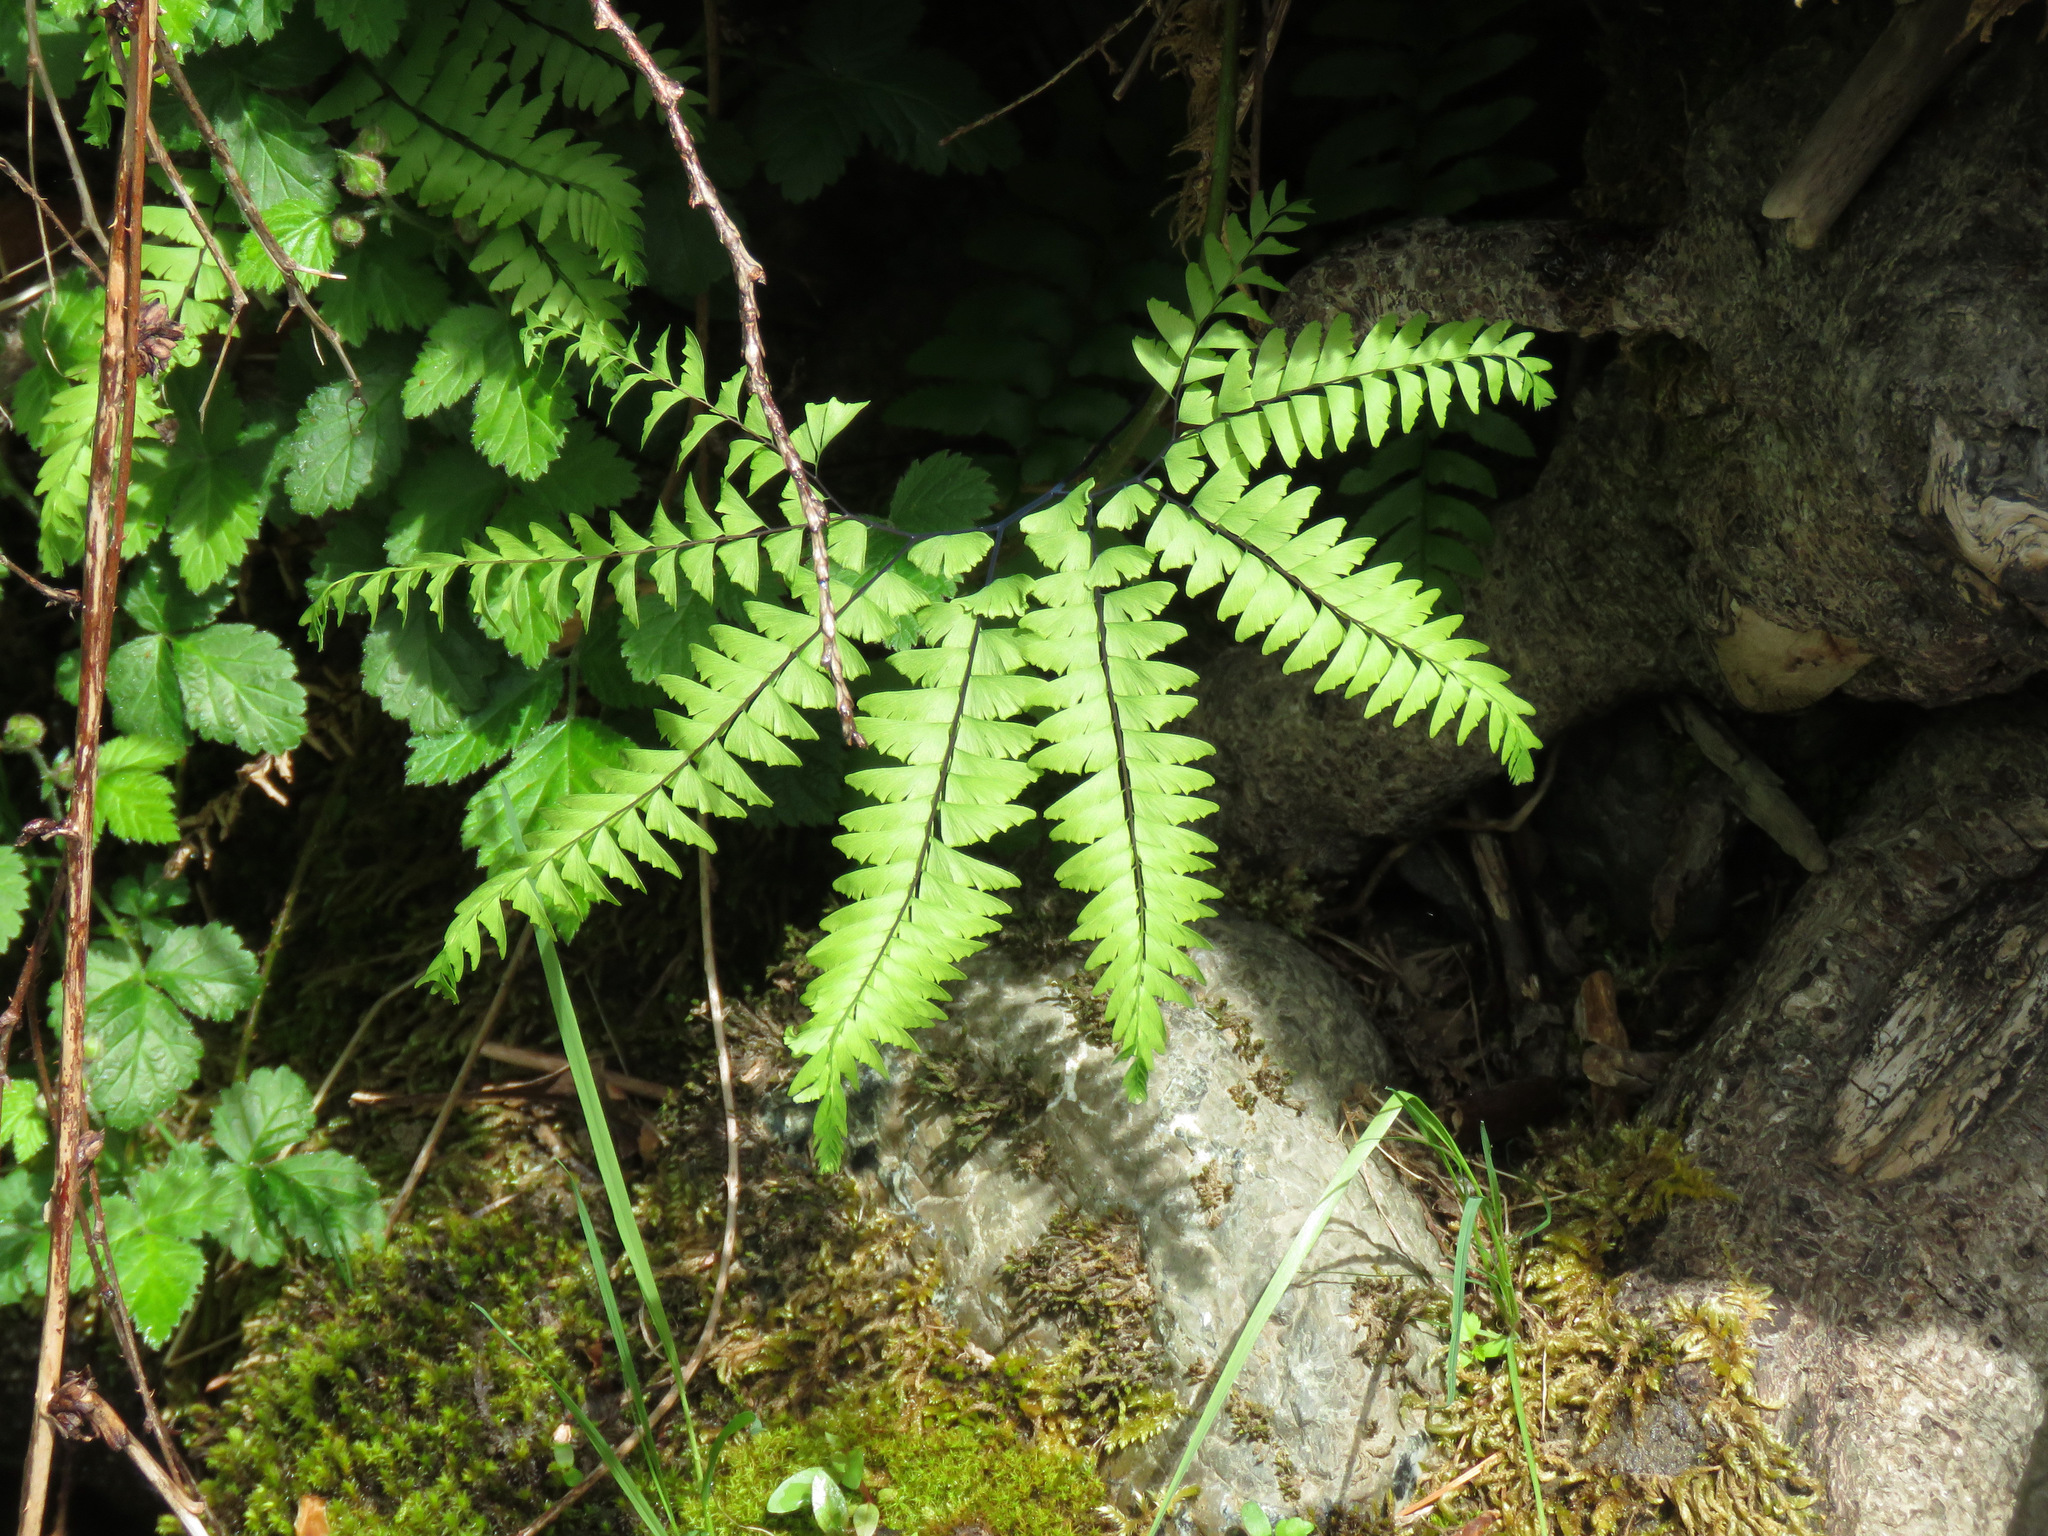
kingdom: Plantae
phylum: Tracheophyta
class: Polypodiopsida
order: Polypodiales
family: Pteridaceae
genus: Adiantum
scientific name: Adiantum aleuticum
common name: Aleutian maidenhair fern
